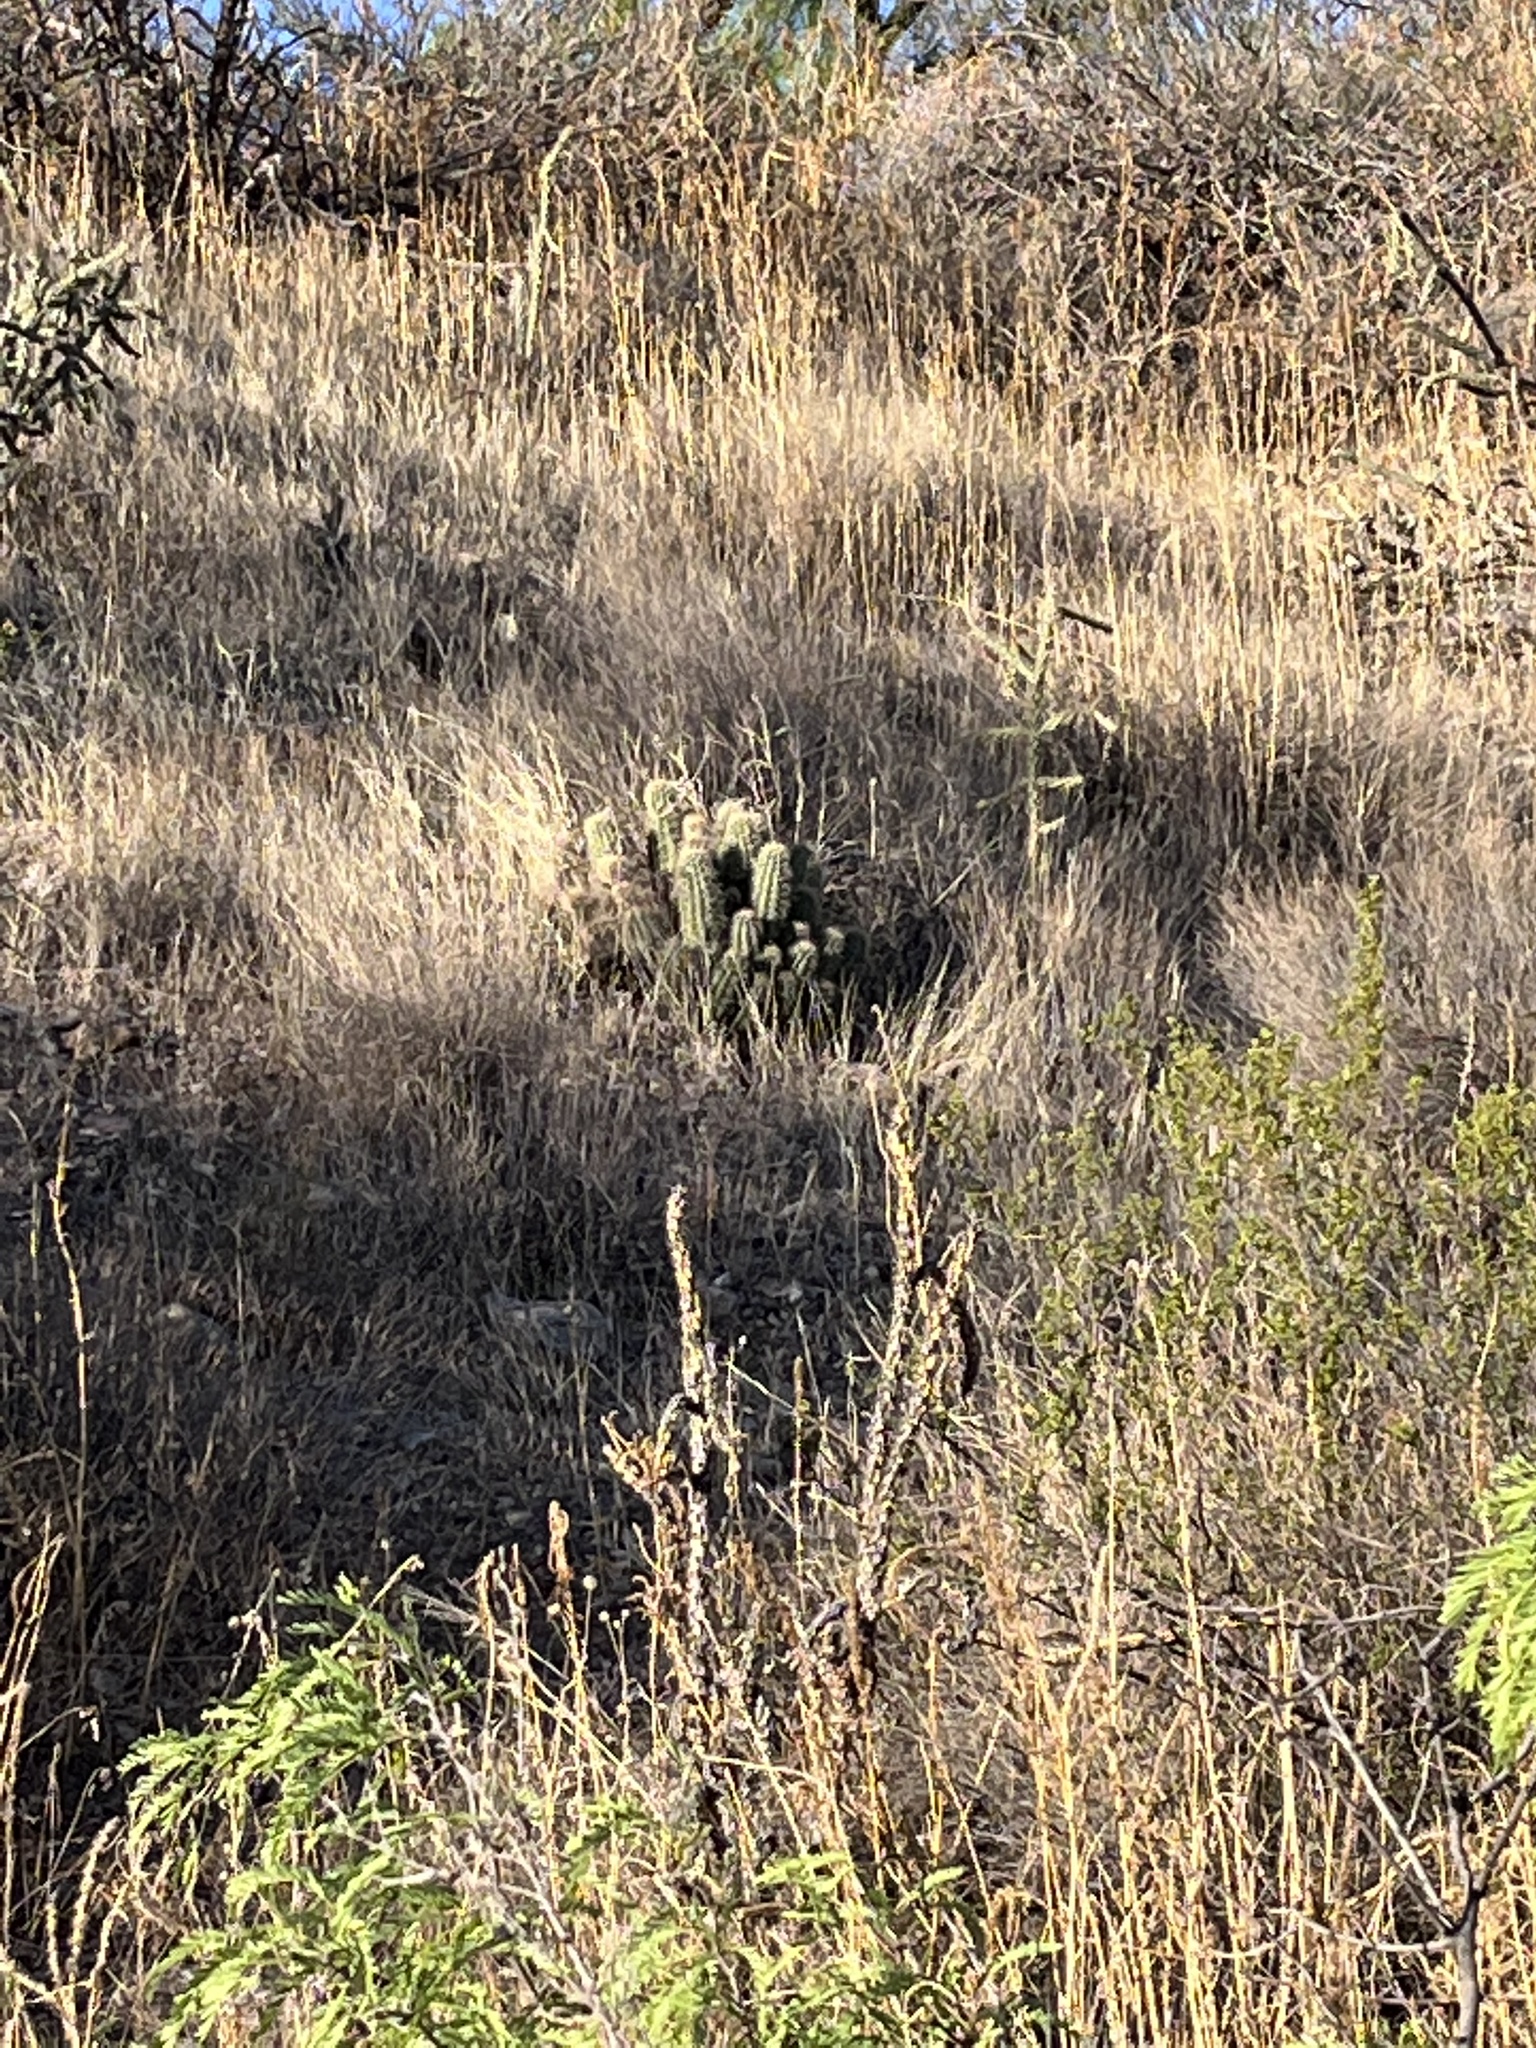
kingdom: Plantae
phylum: Tracheophyta
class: Magnoliopsida
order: Caryophyllales
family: Cactaceae
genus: Echinocereus
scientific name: Echinocereus
